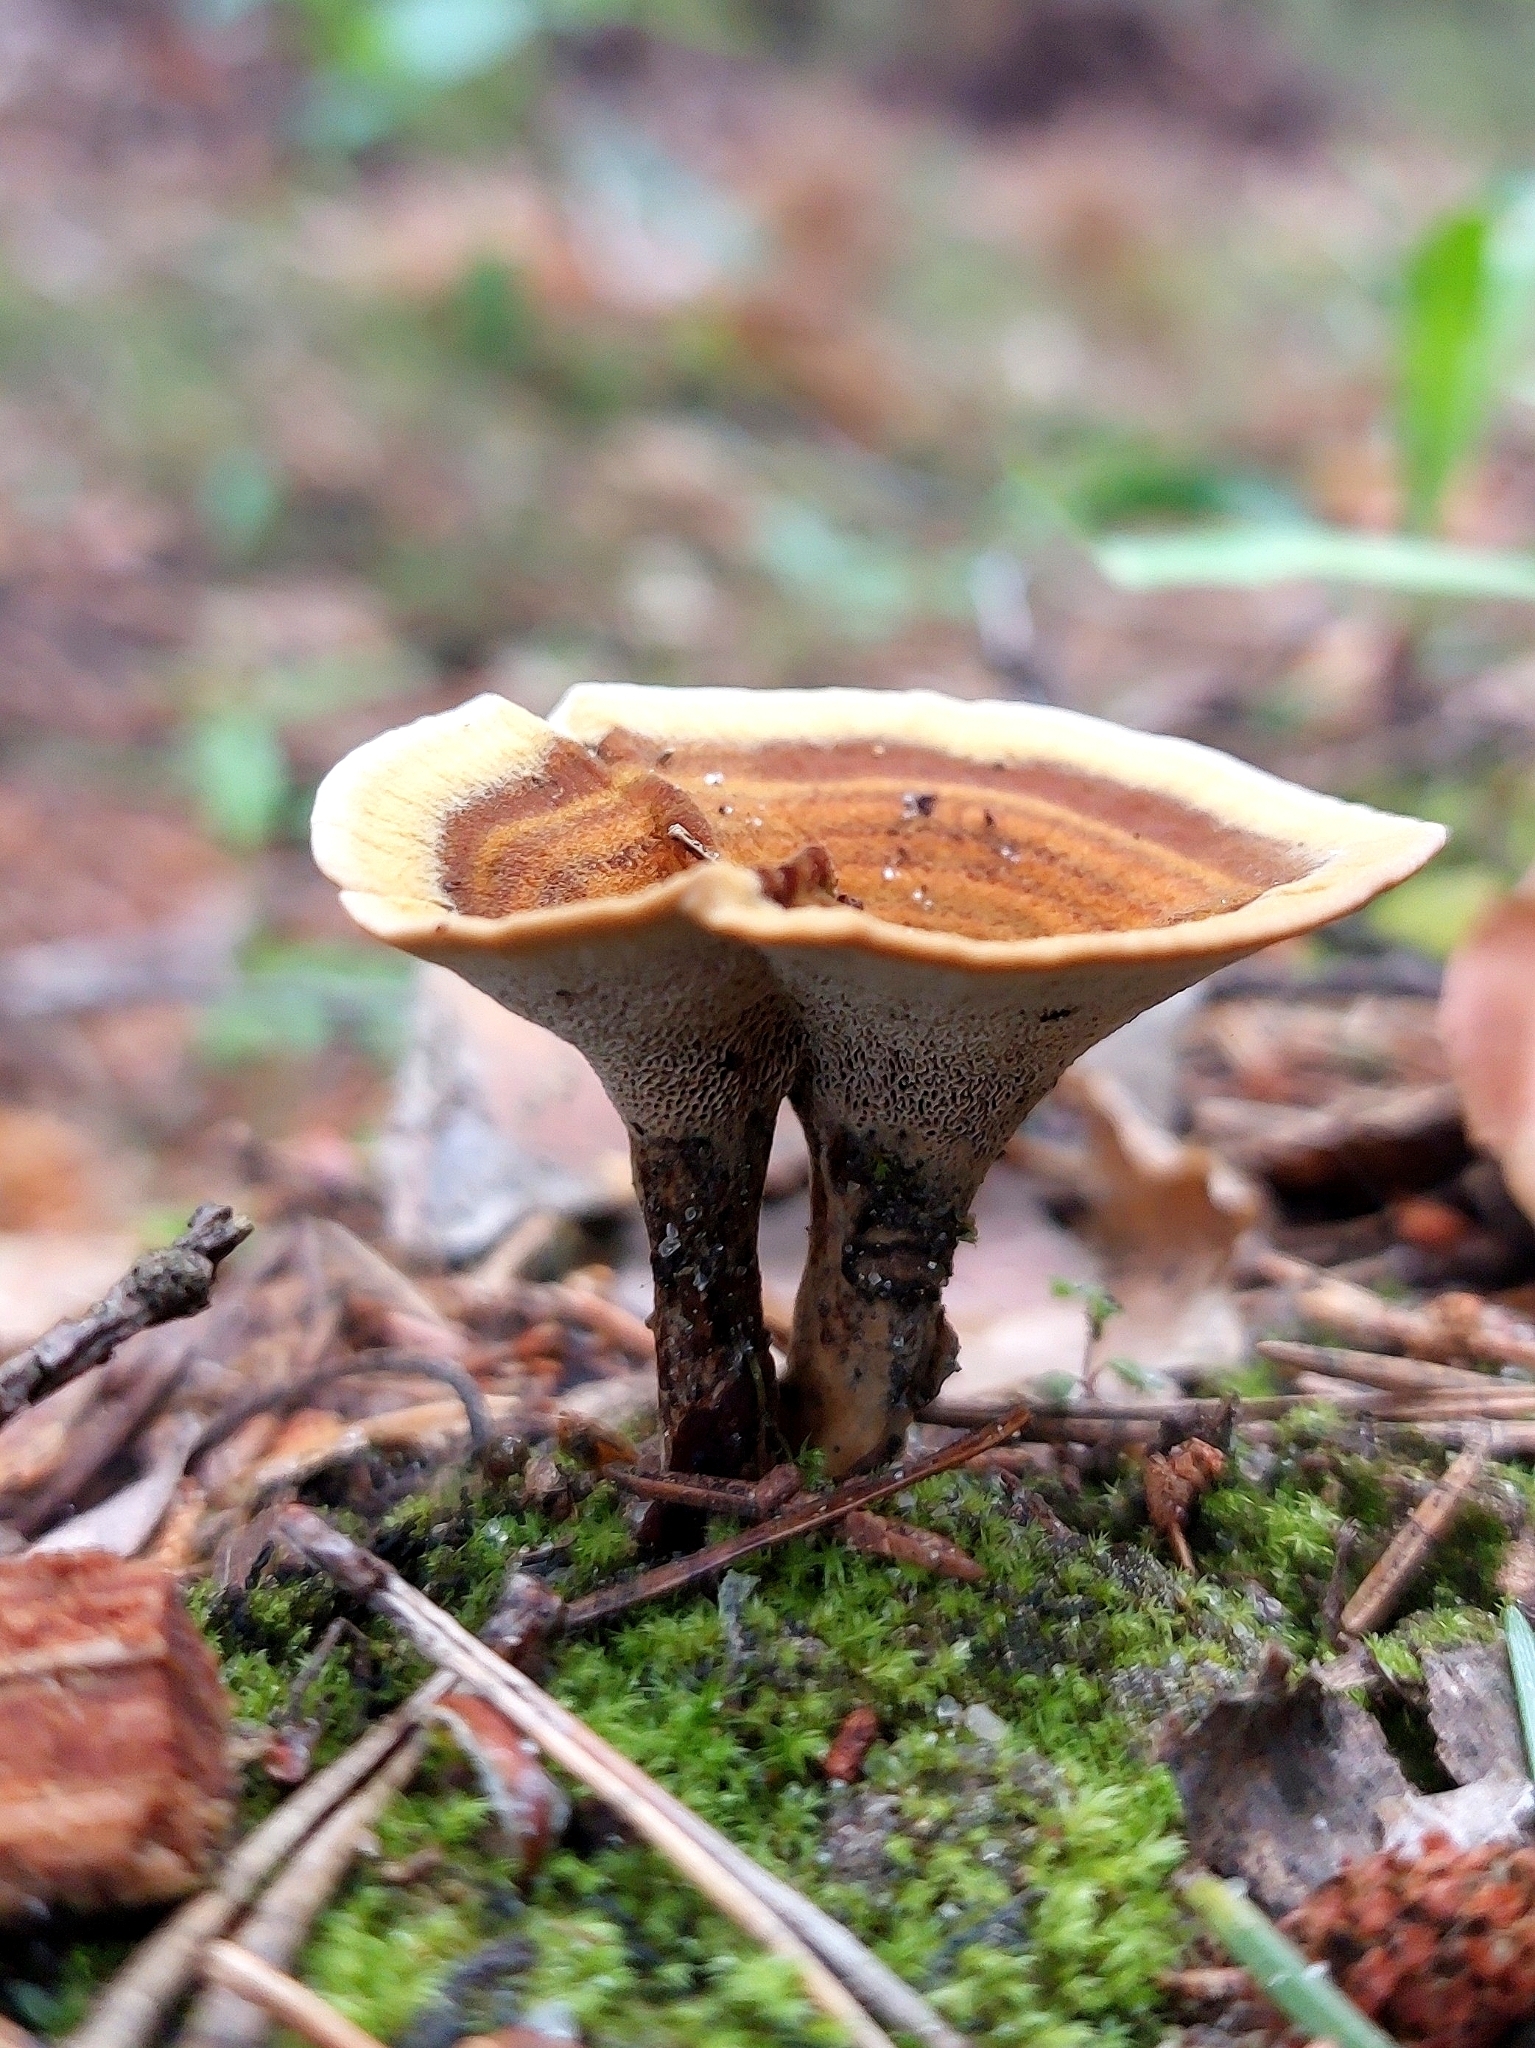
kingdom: Fungi
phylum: Basidiomycota
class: Agaricomycetes
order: Hymenochaetales
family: Hymenochaetaceae
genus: Coltricia
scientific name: Coltricia perennis
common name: Tiger's eye
